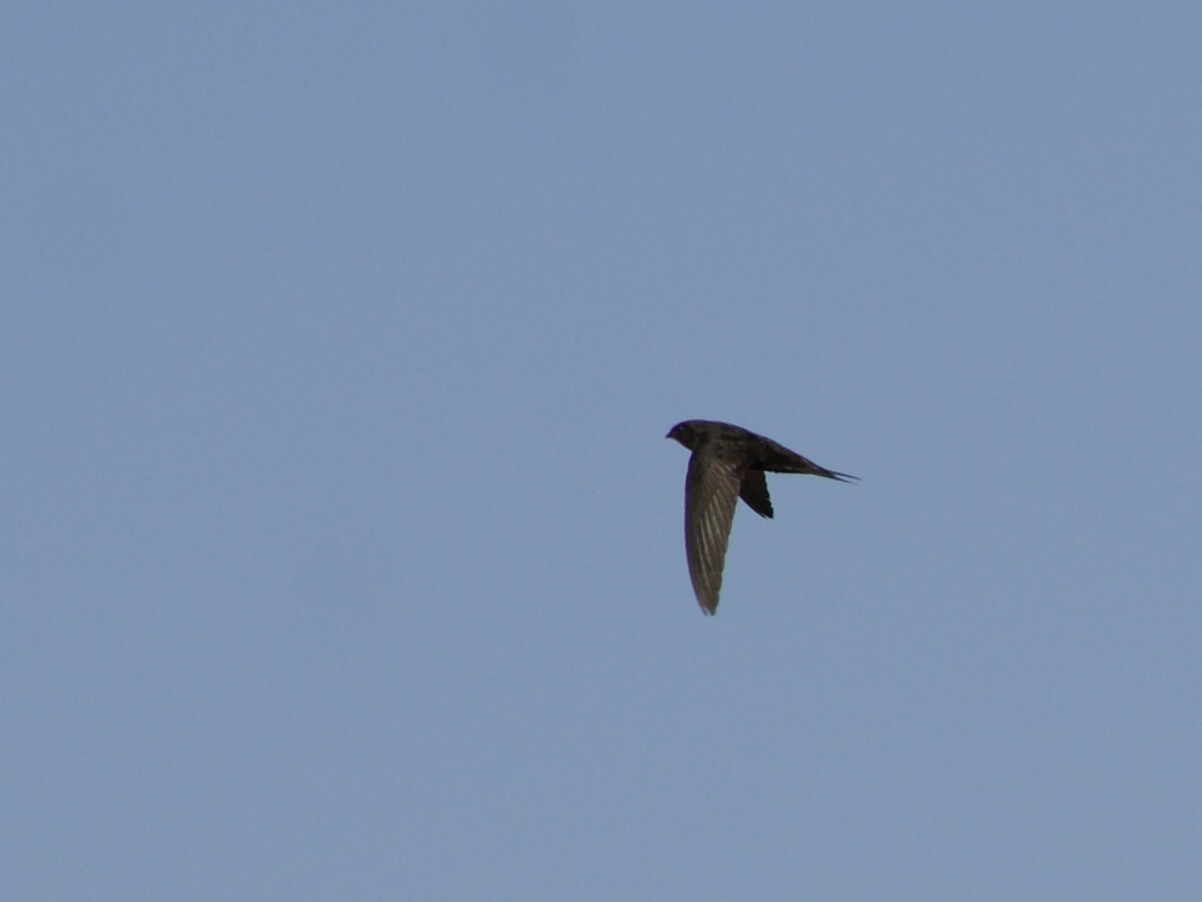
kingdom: Animalia
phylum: Chordata
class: Aves
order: Apodiformes
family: Apodidae
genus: Apus
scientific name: Apus apus
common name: Common swift
